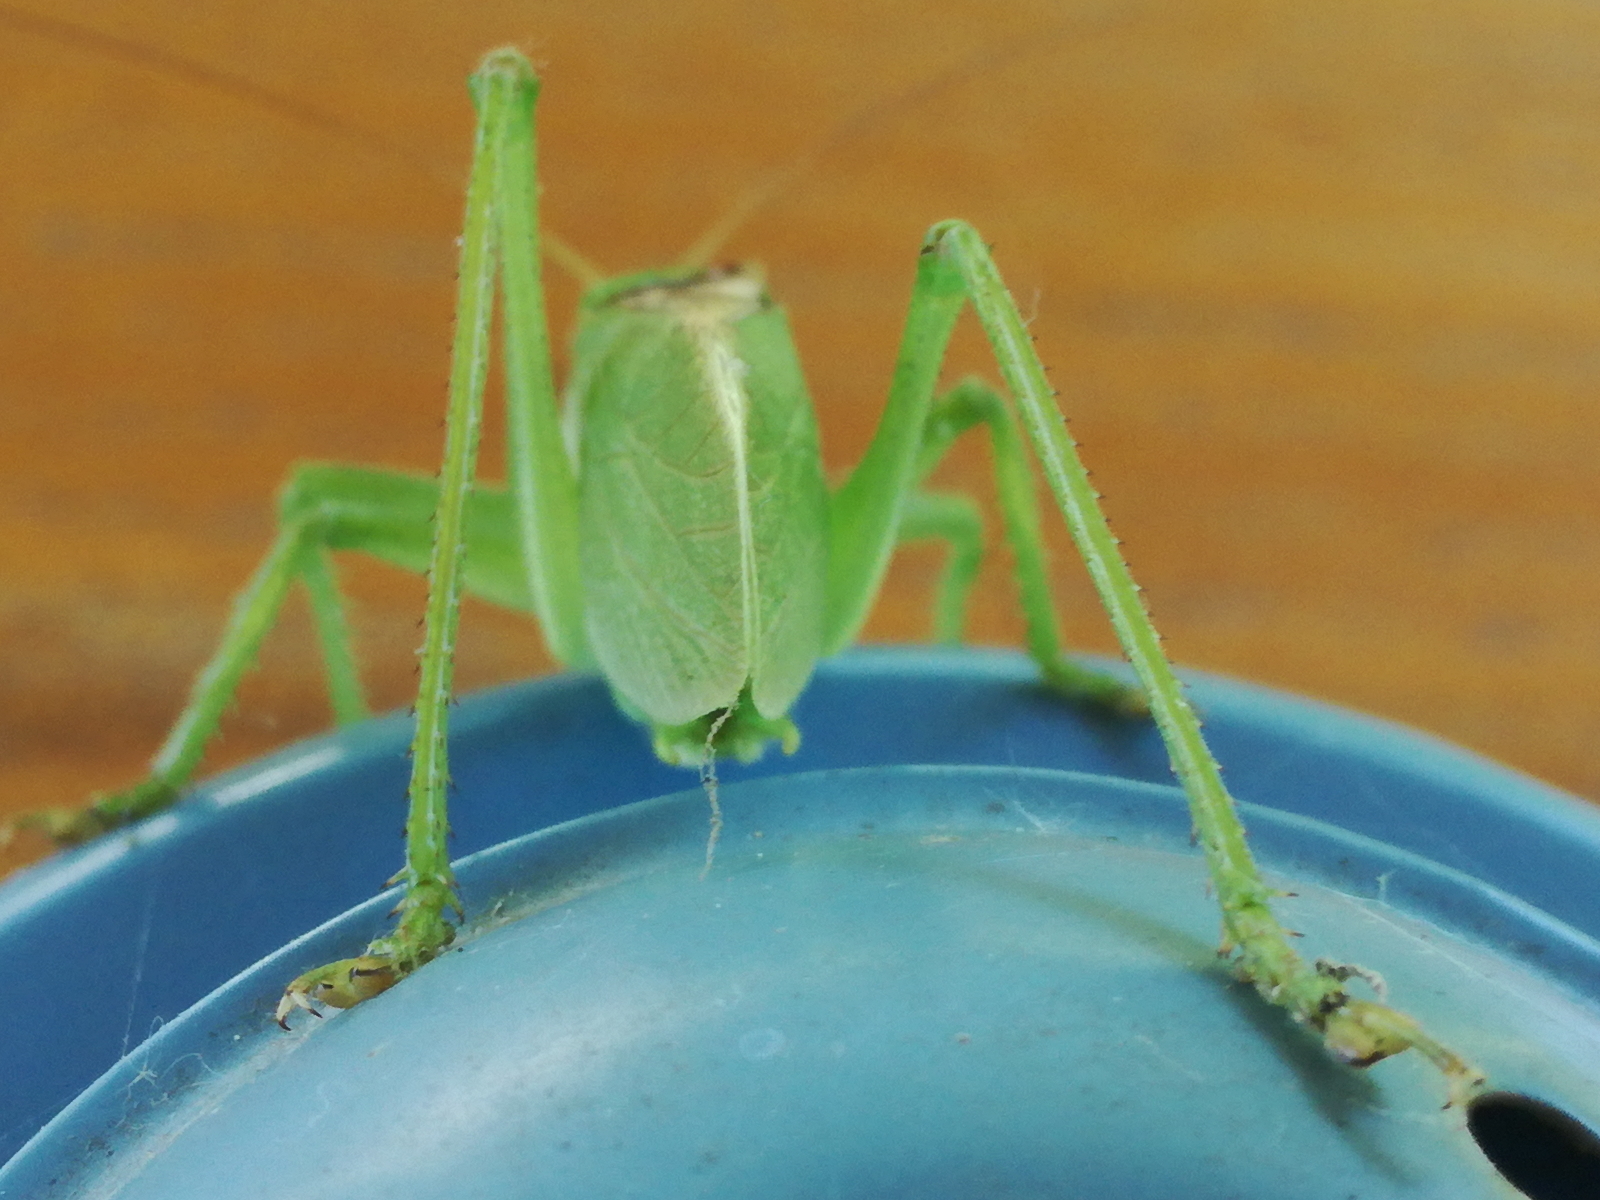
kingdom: Animalia
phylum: Arthropoda
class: Insecta
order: Orthoptera
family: Tettigoniidae
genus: Tettigonia
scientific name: Tettigonia cantans
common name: Upland green bush-cricket
